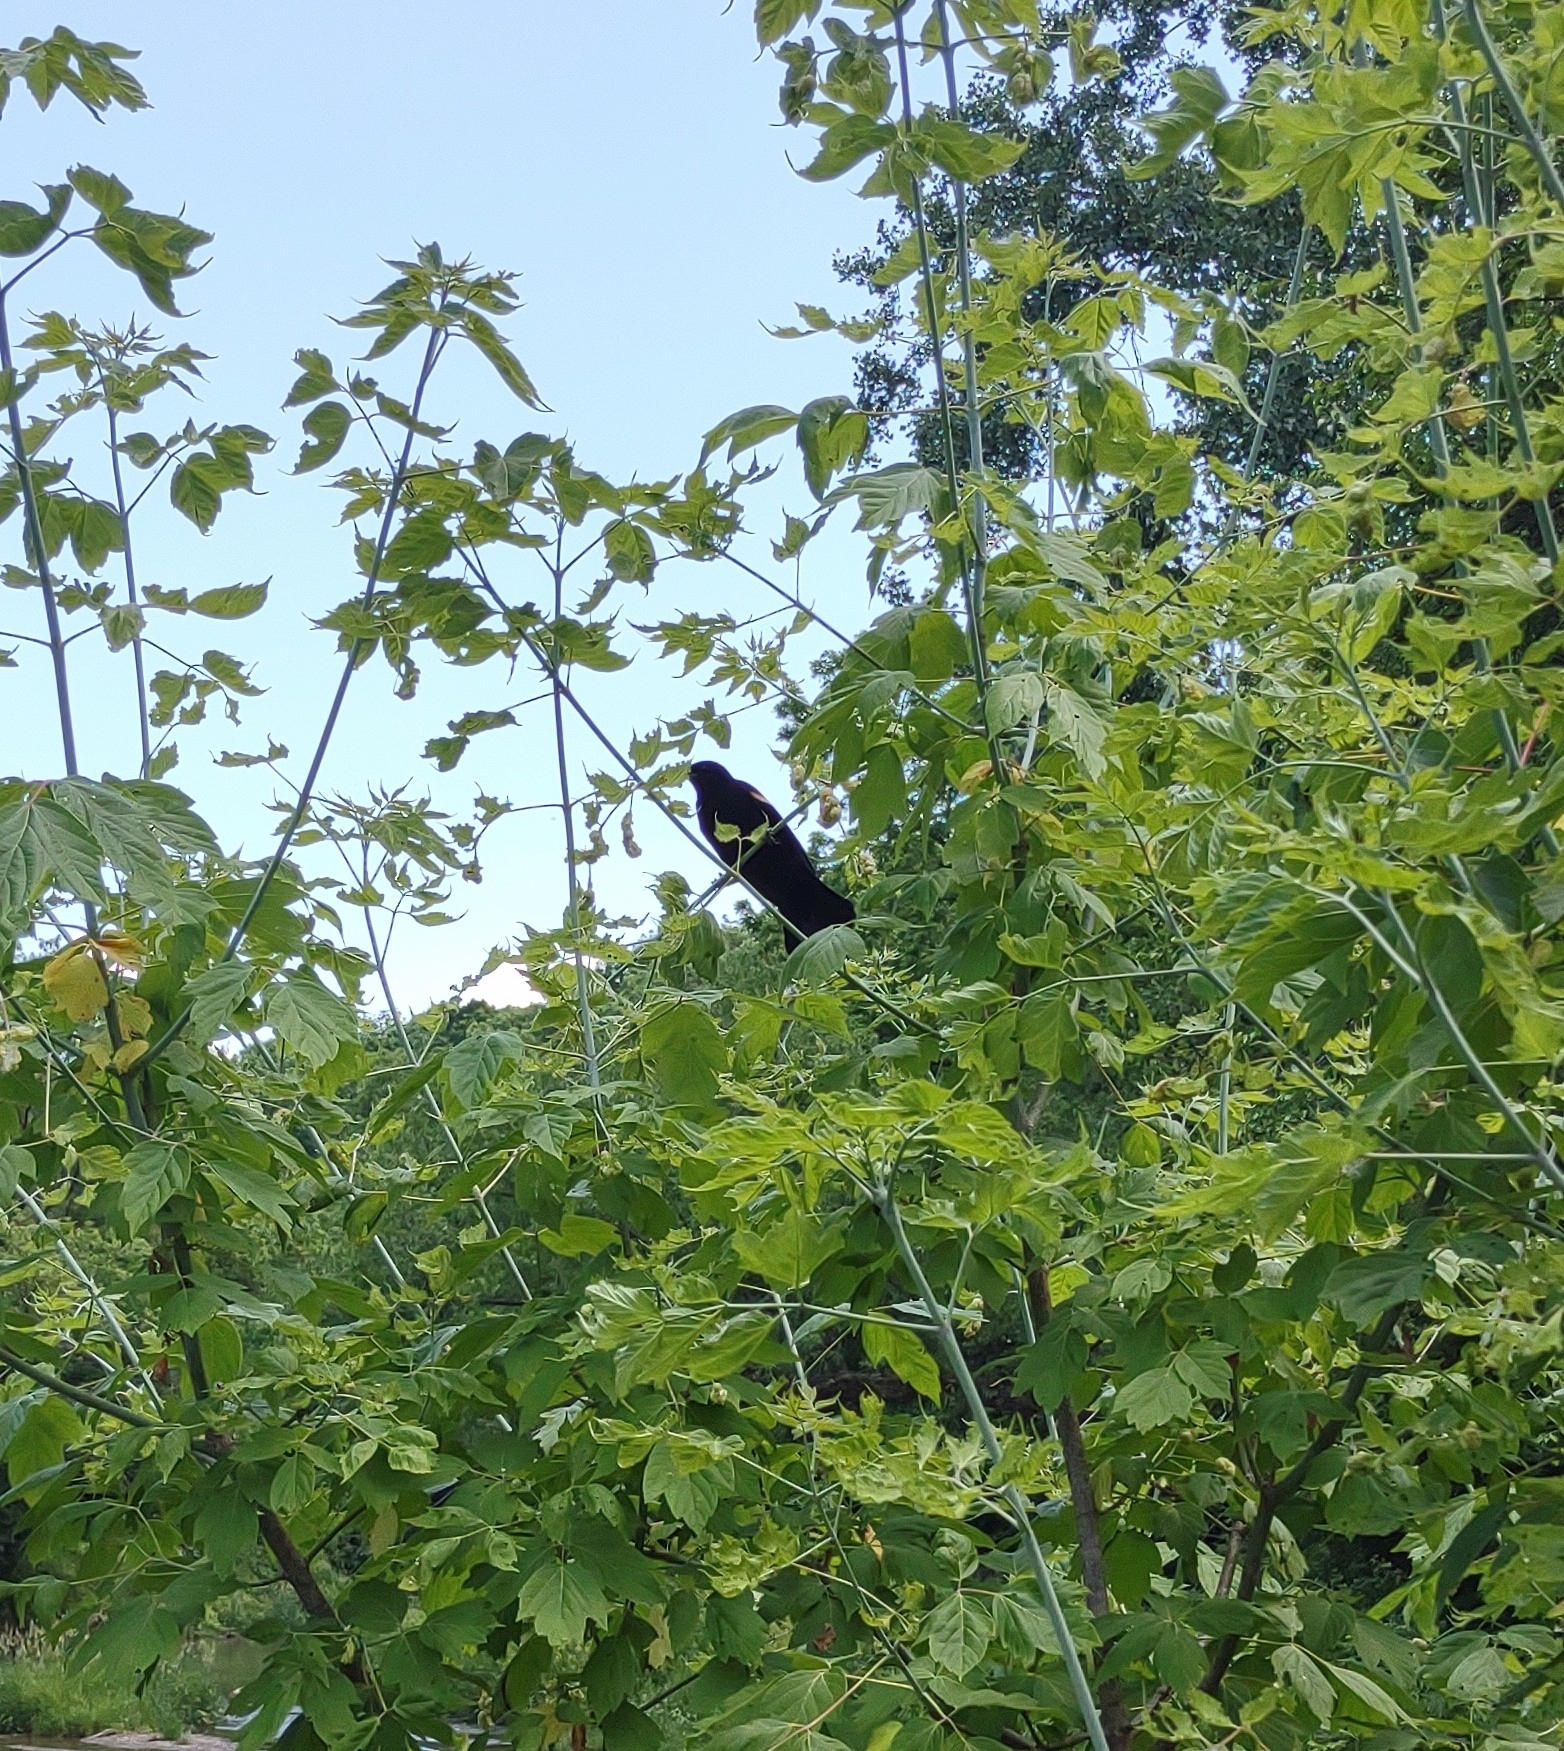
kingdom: Animalia
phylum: Chordata
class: Aves
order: Passeriformes
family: Icteridae
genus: Agelaius
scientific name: Agelaius phoeniceus
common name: Red-winged blackbird
